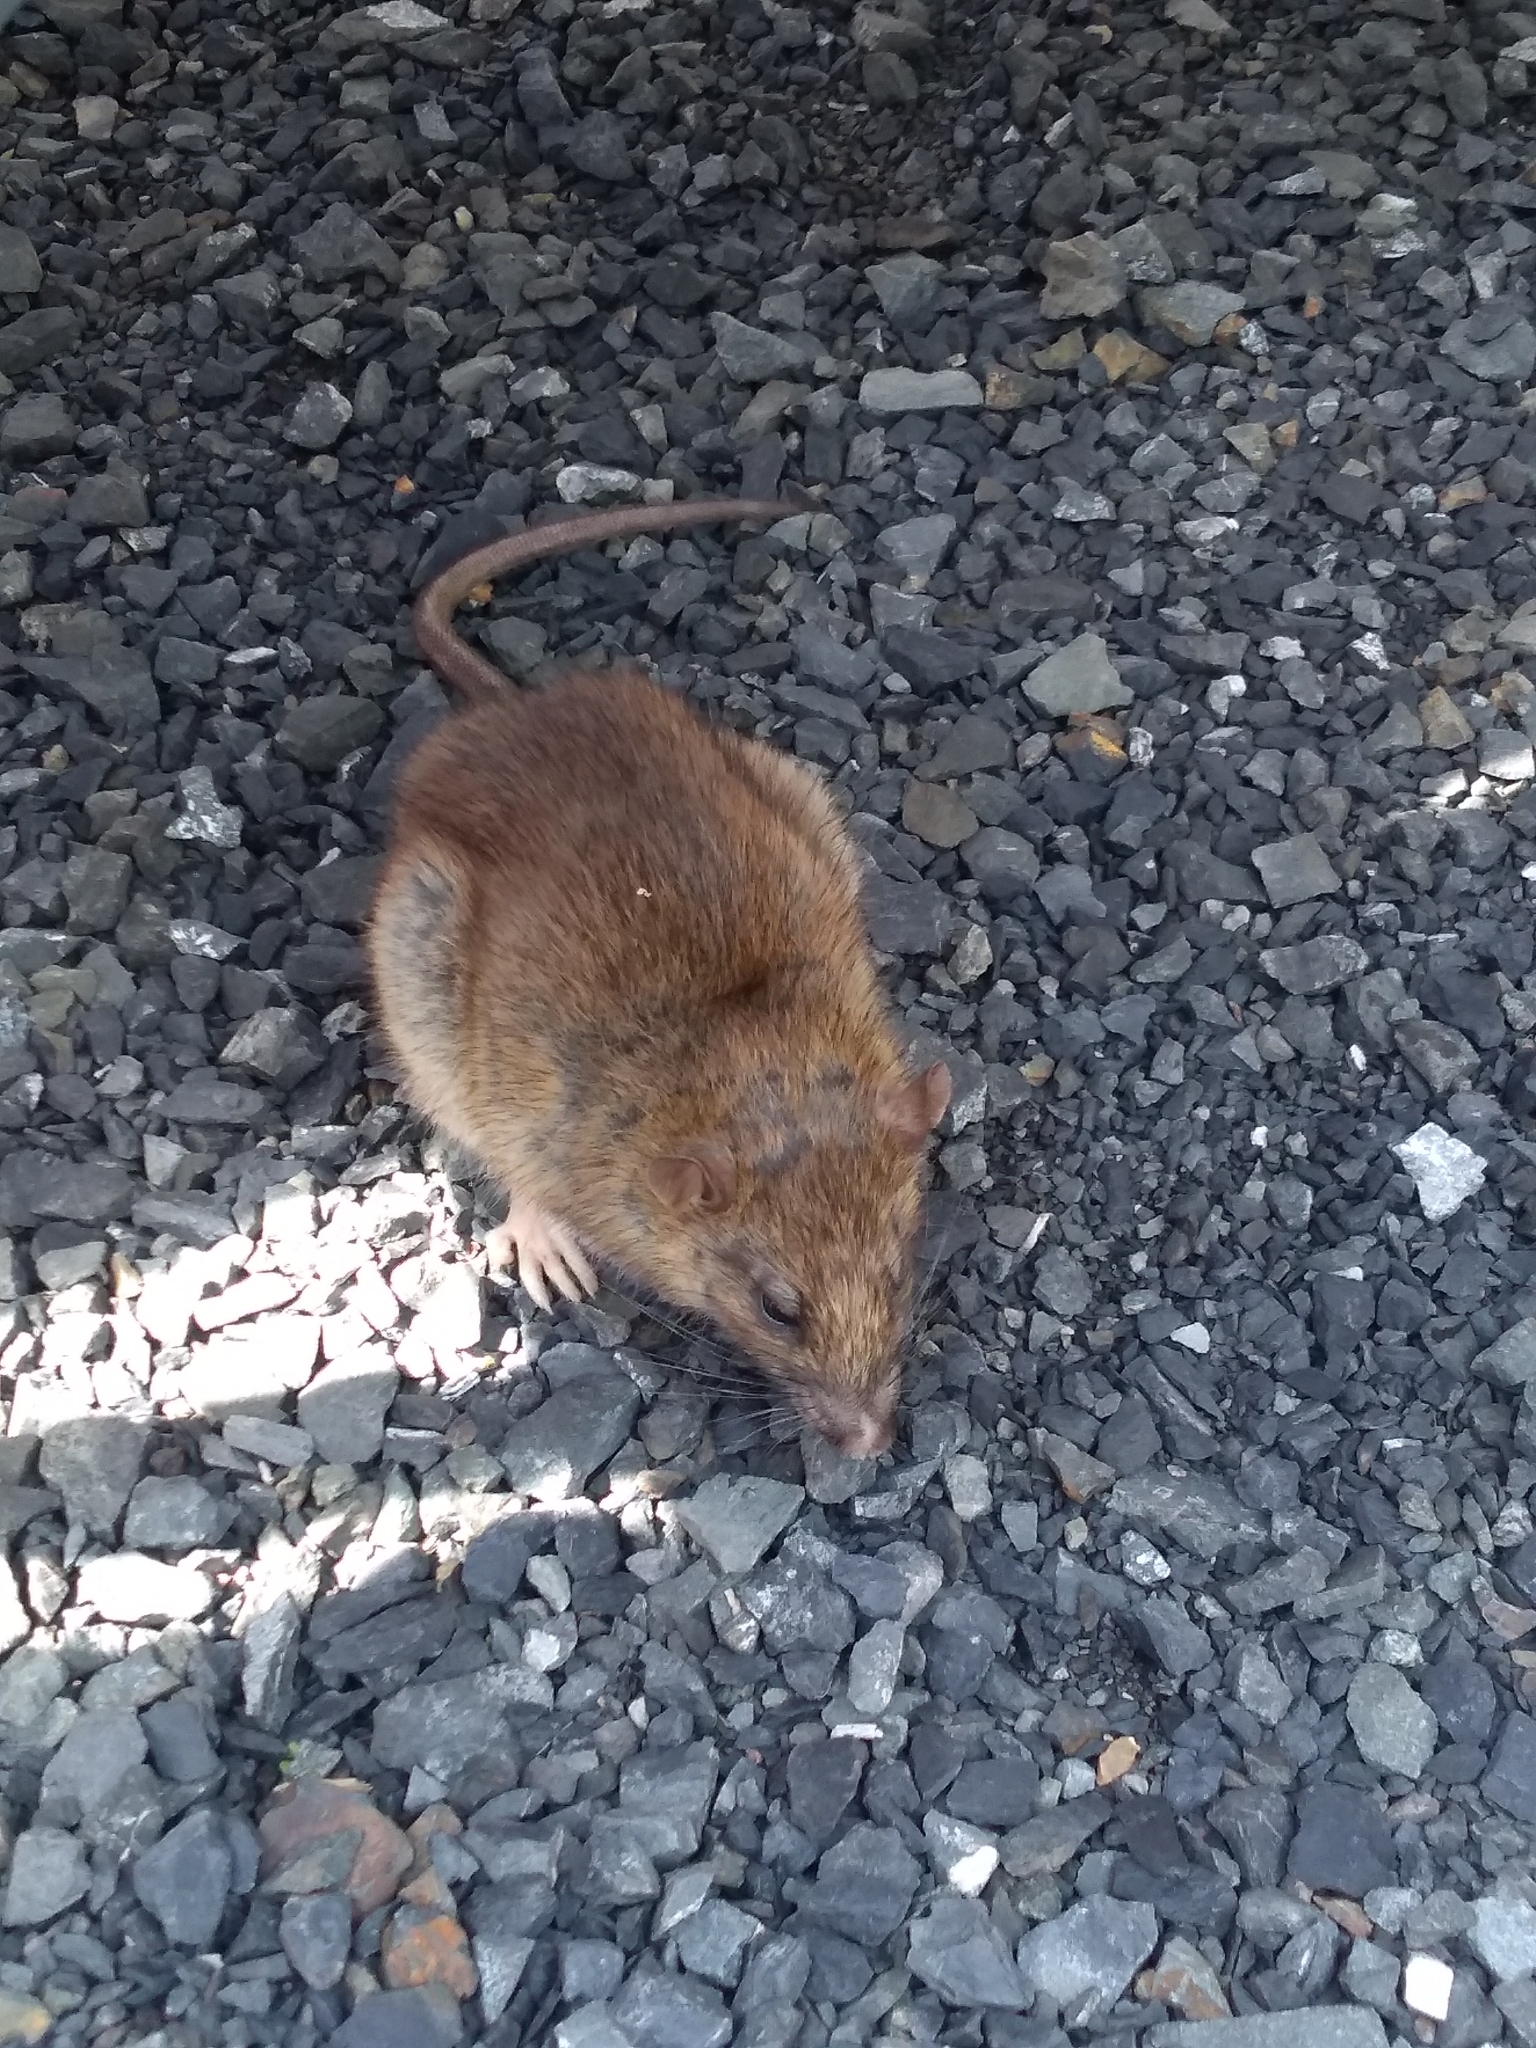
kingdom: Animalia
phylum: Chordata
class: Mammalia
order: Rodentia
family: Muridae
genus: Rattus
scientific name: Rattus rattus
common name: Black rat
